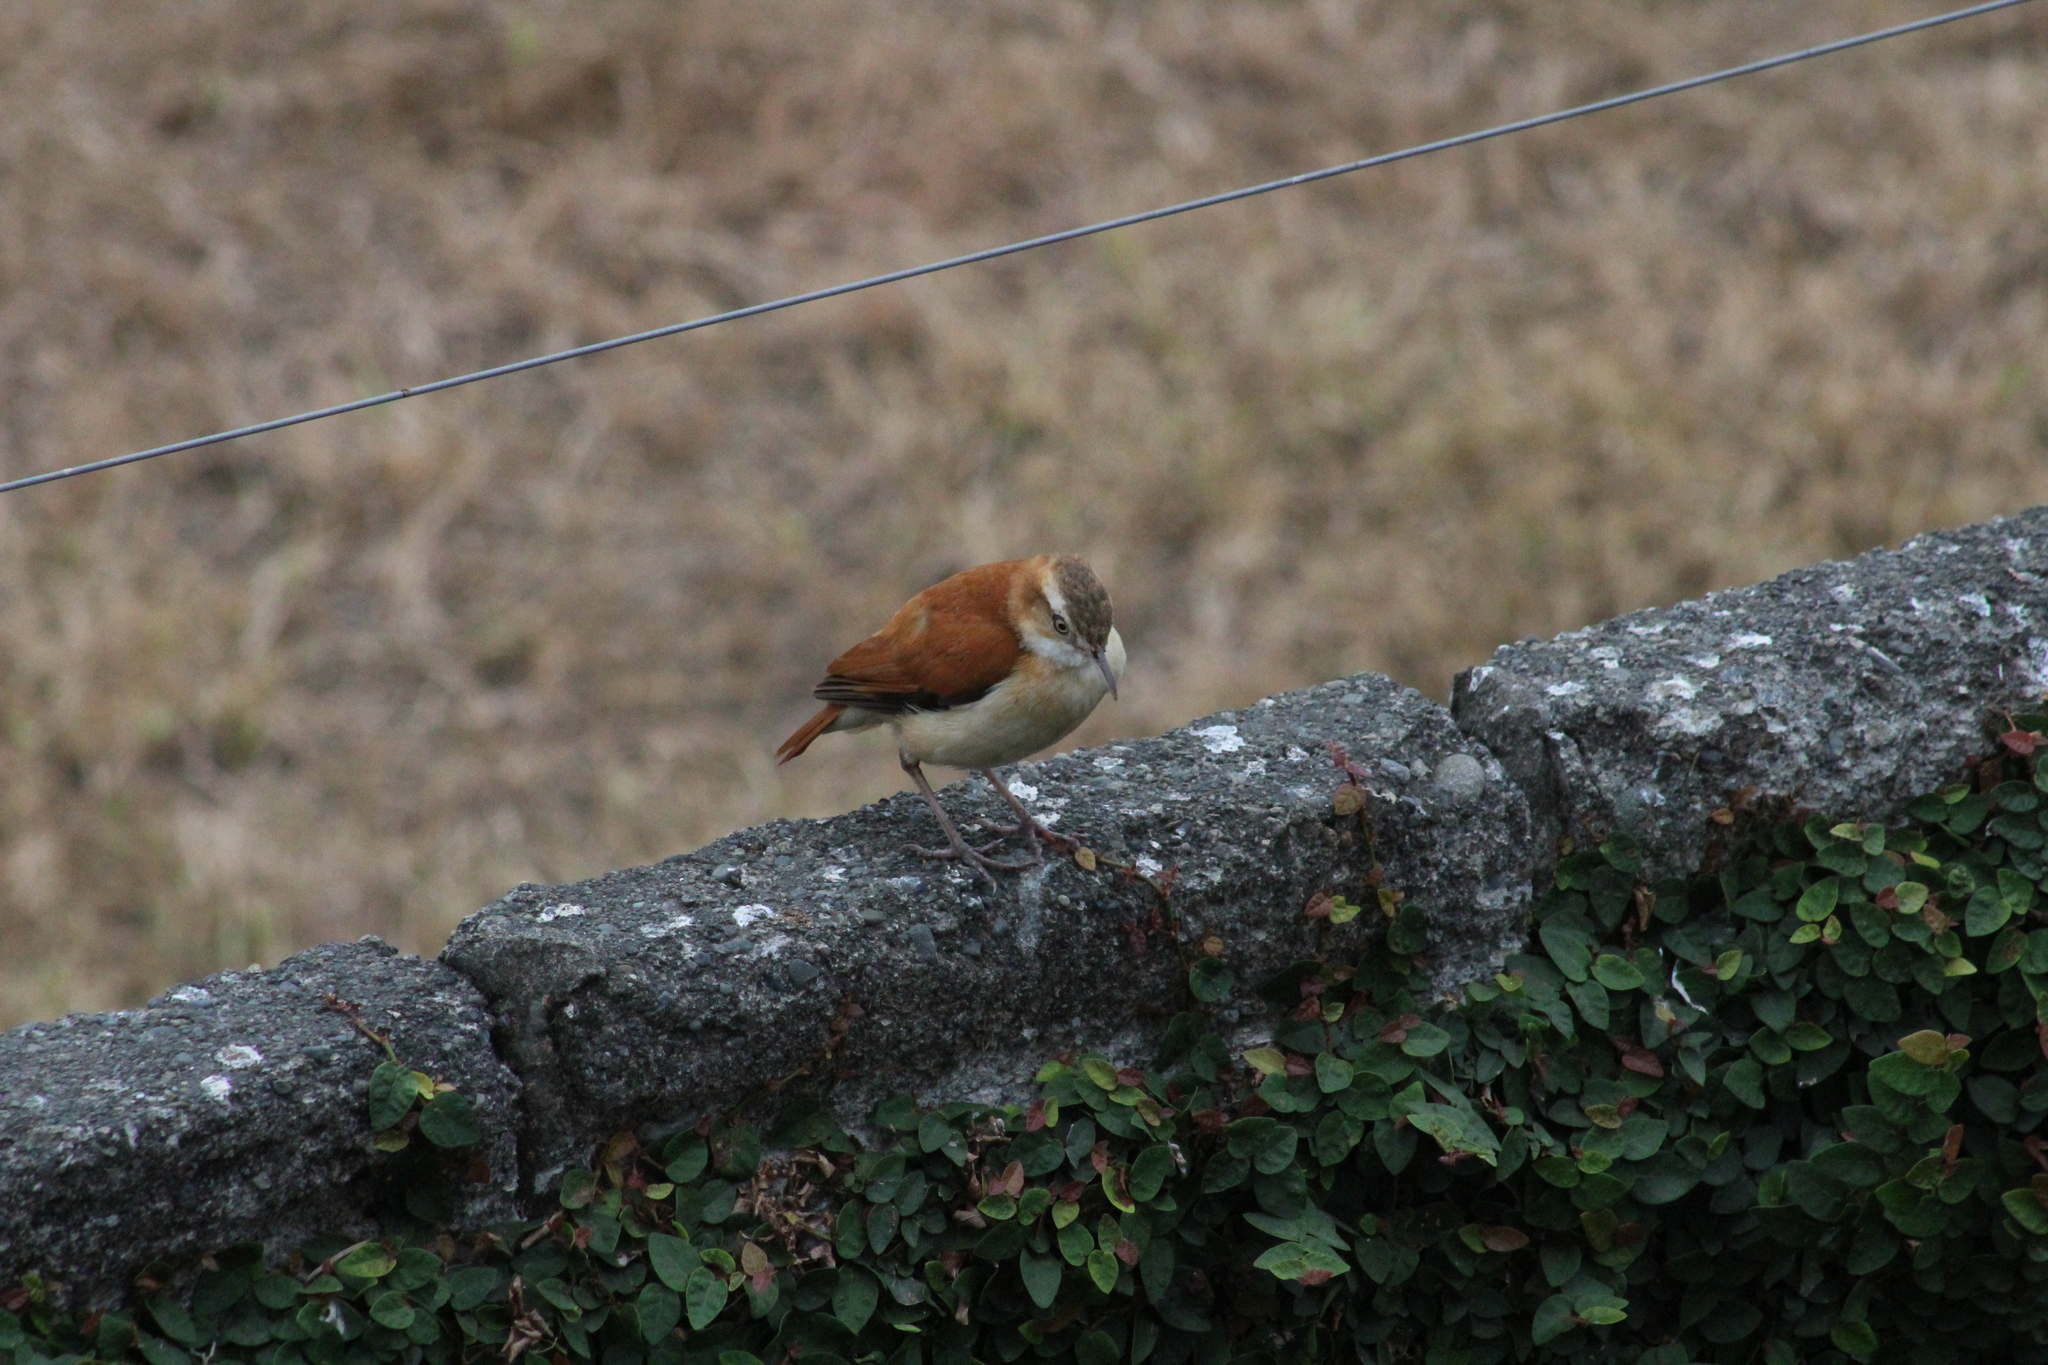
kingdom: Animalia
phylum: Chordata
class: Aves
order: Passeriformes
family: Furnariidae
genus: Furnarius
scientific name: Furnarius leucopus
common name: Pale-legged hornero
